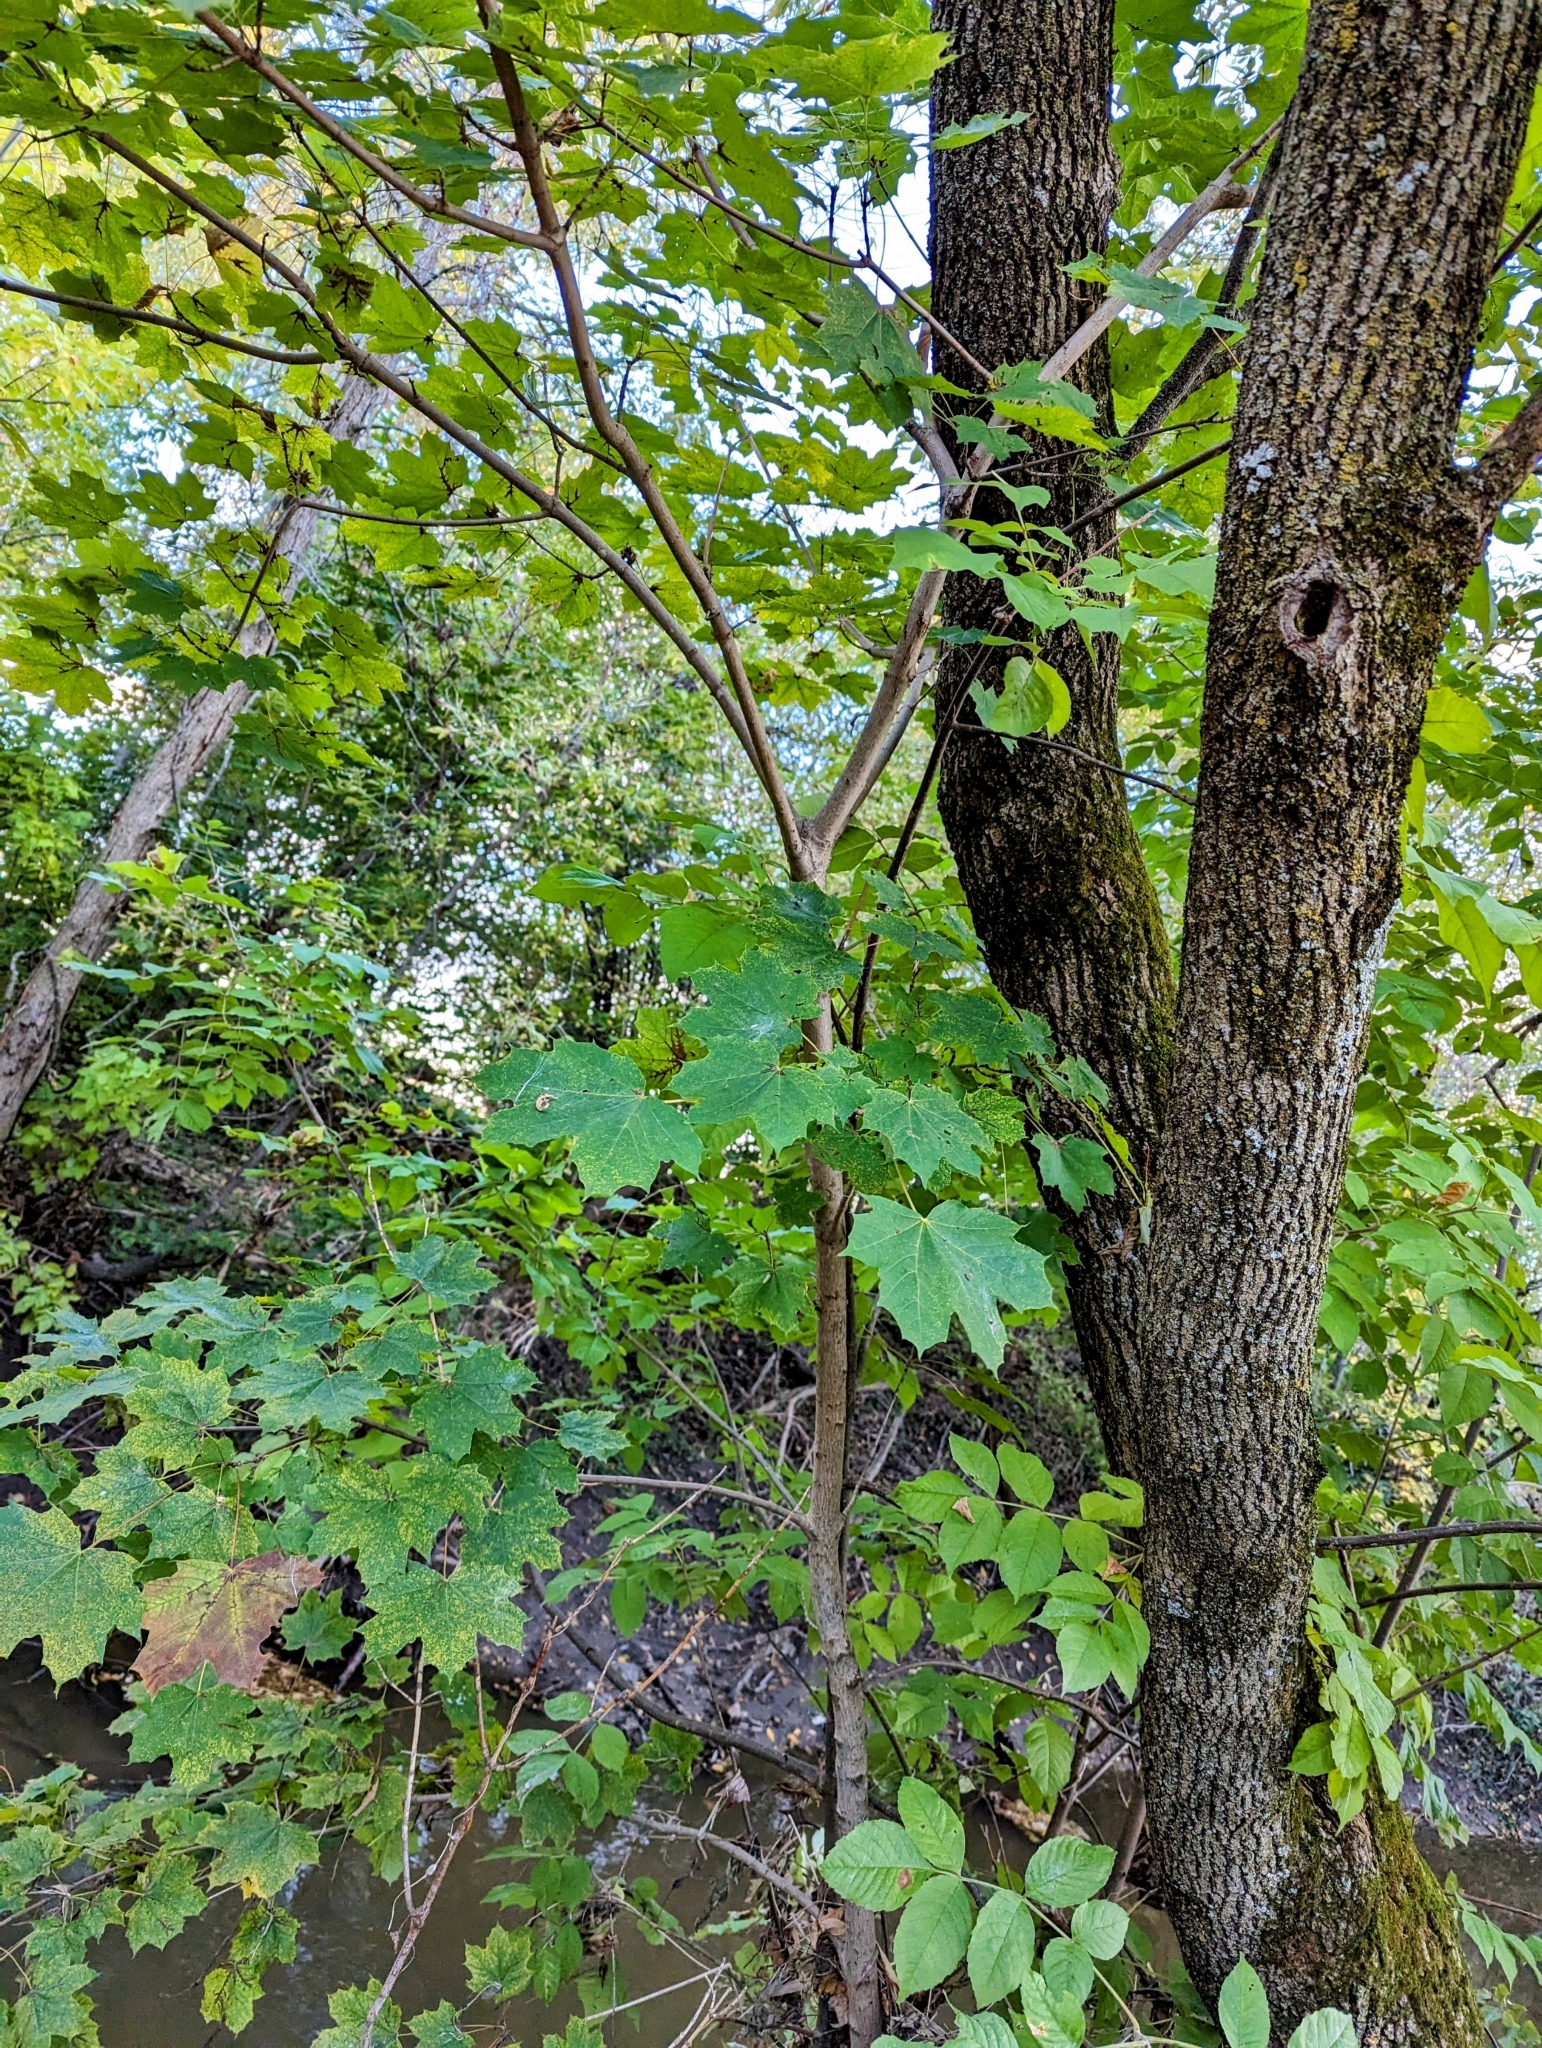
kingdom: Plantae
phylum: Tracheophyta
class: Magnoliopsida
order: Sapindales
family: Sapindaceae
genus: Acer
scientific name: Acer platanoides
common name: Norway maple
